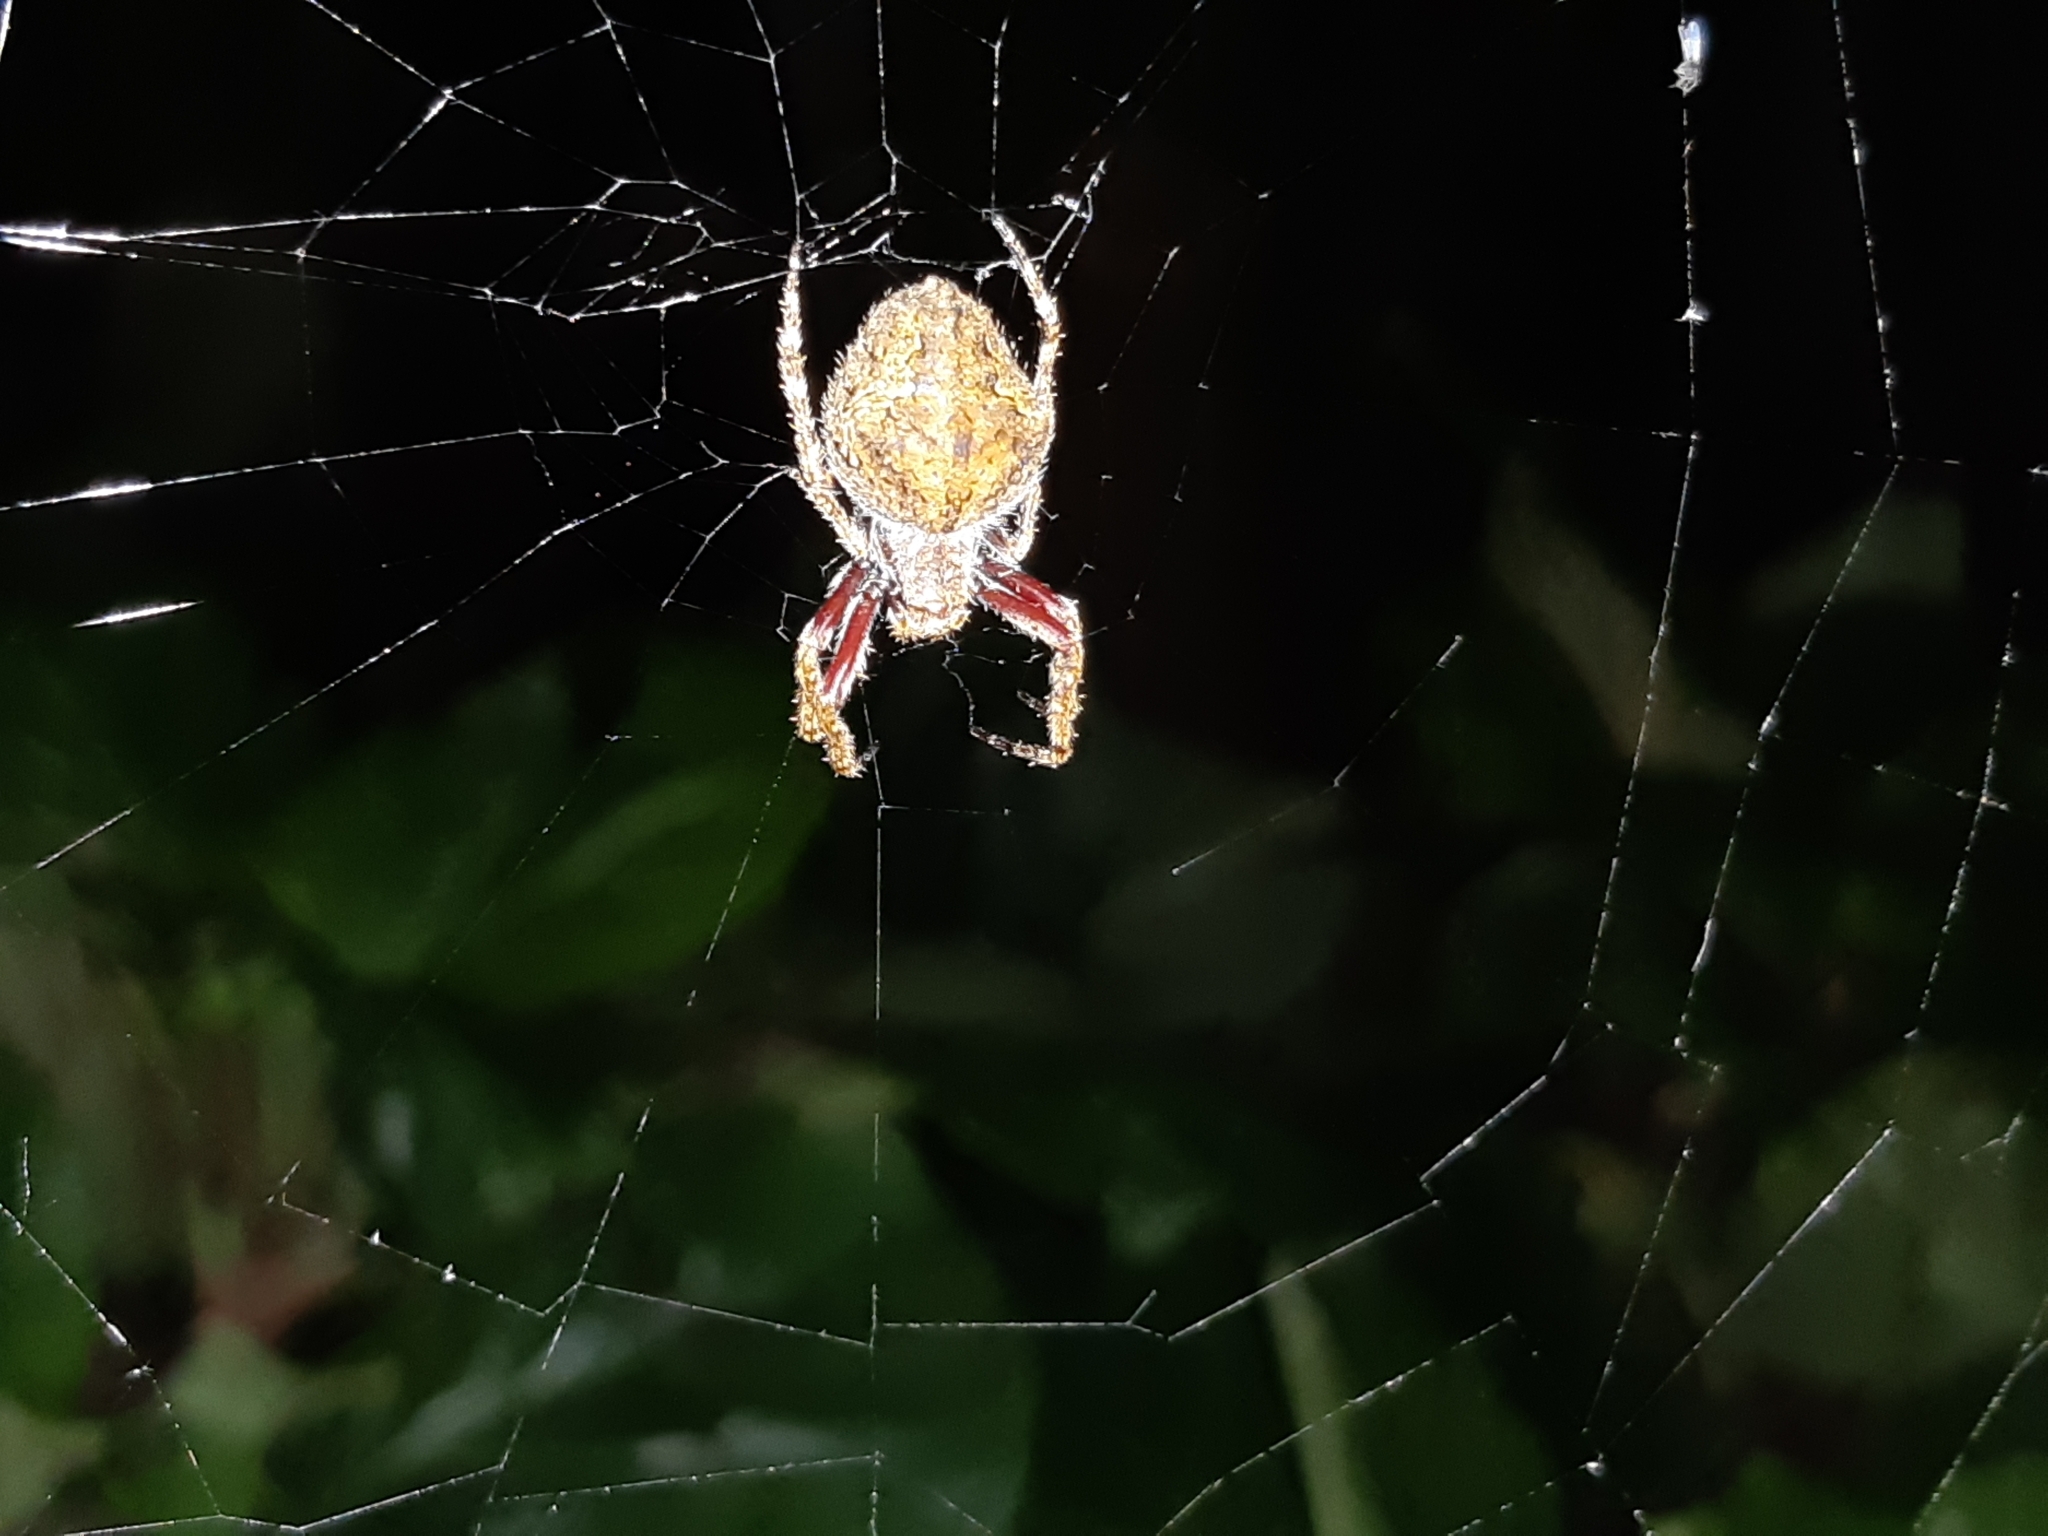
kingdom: Animalia
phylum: Arthropoda
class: Arachnida
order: Araneae
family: Araneidae
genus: Eriophora
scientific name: Eriophora pustulosa
